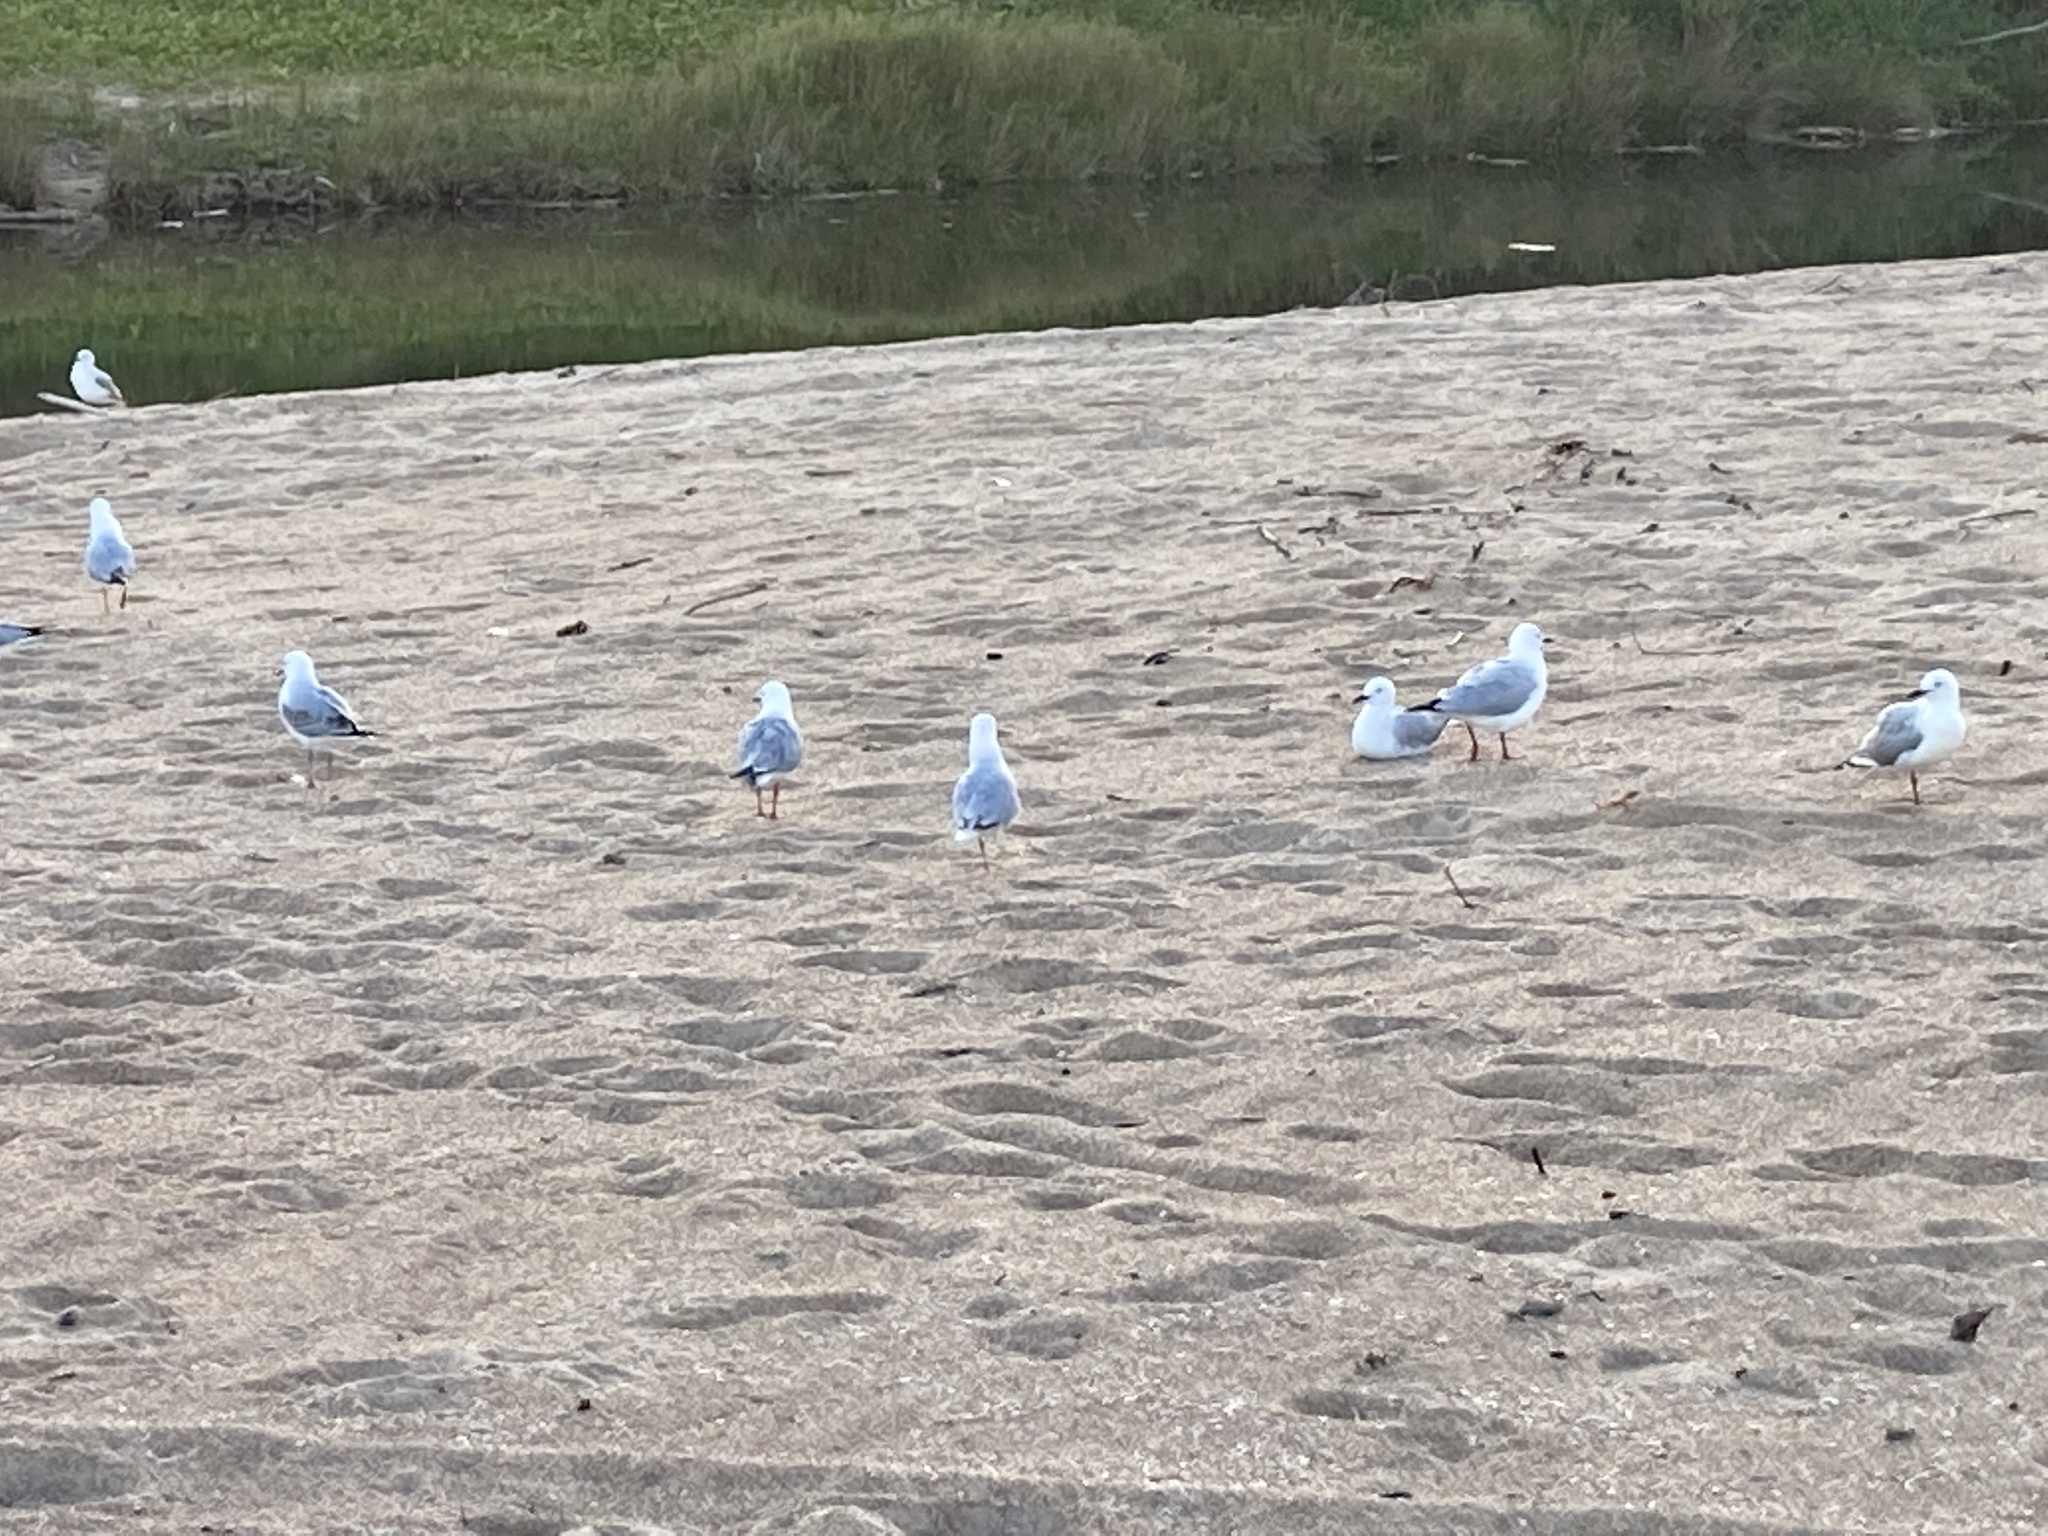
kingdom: Animalia
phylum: Chordata
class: Aves
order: Charadriiformes
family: Laridae
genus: Chroicocephalus
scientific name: Chroicocephalus novaehollandiae
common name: Silver gull
